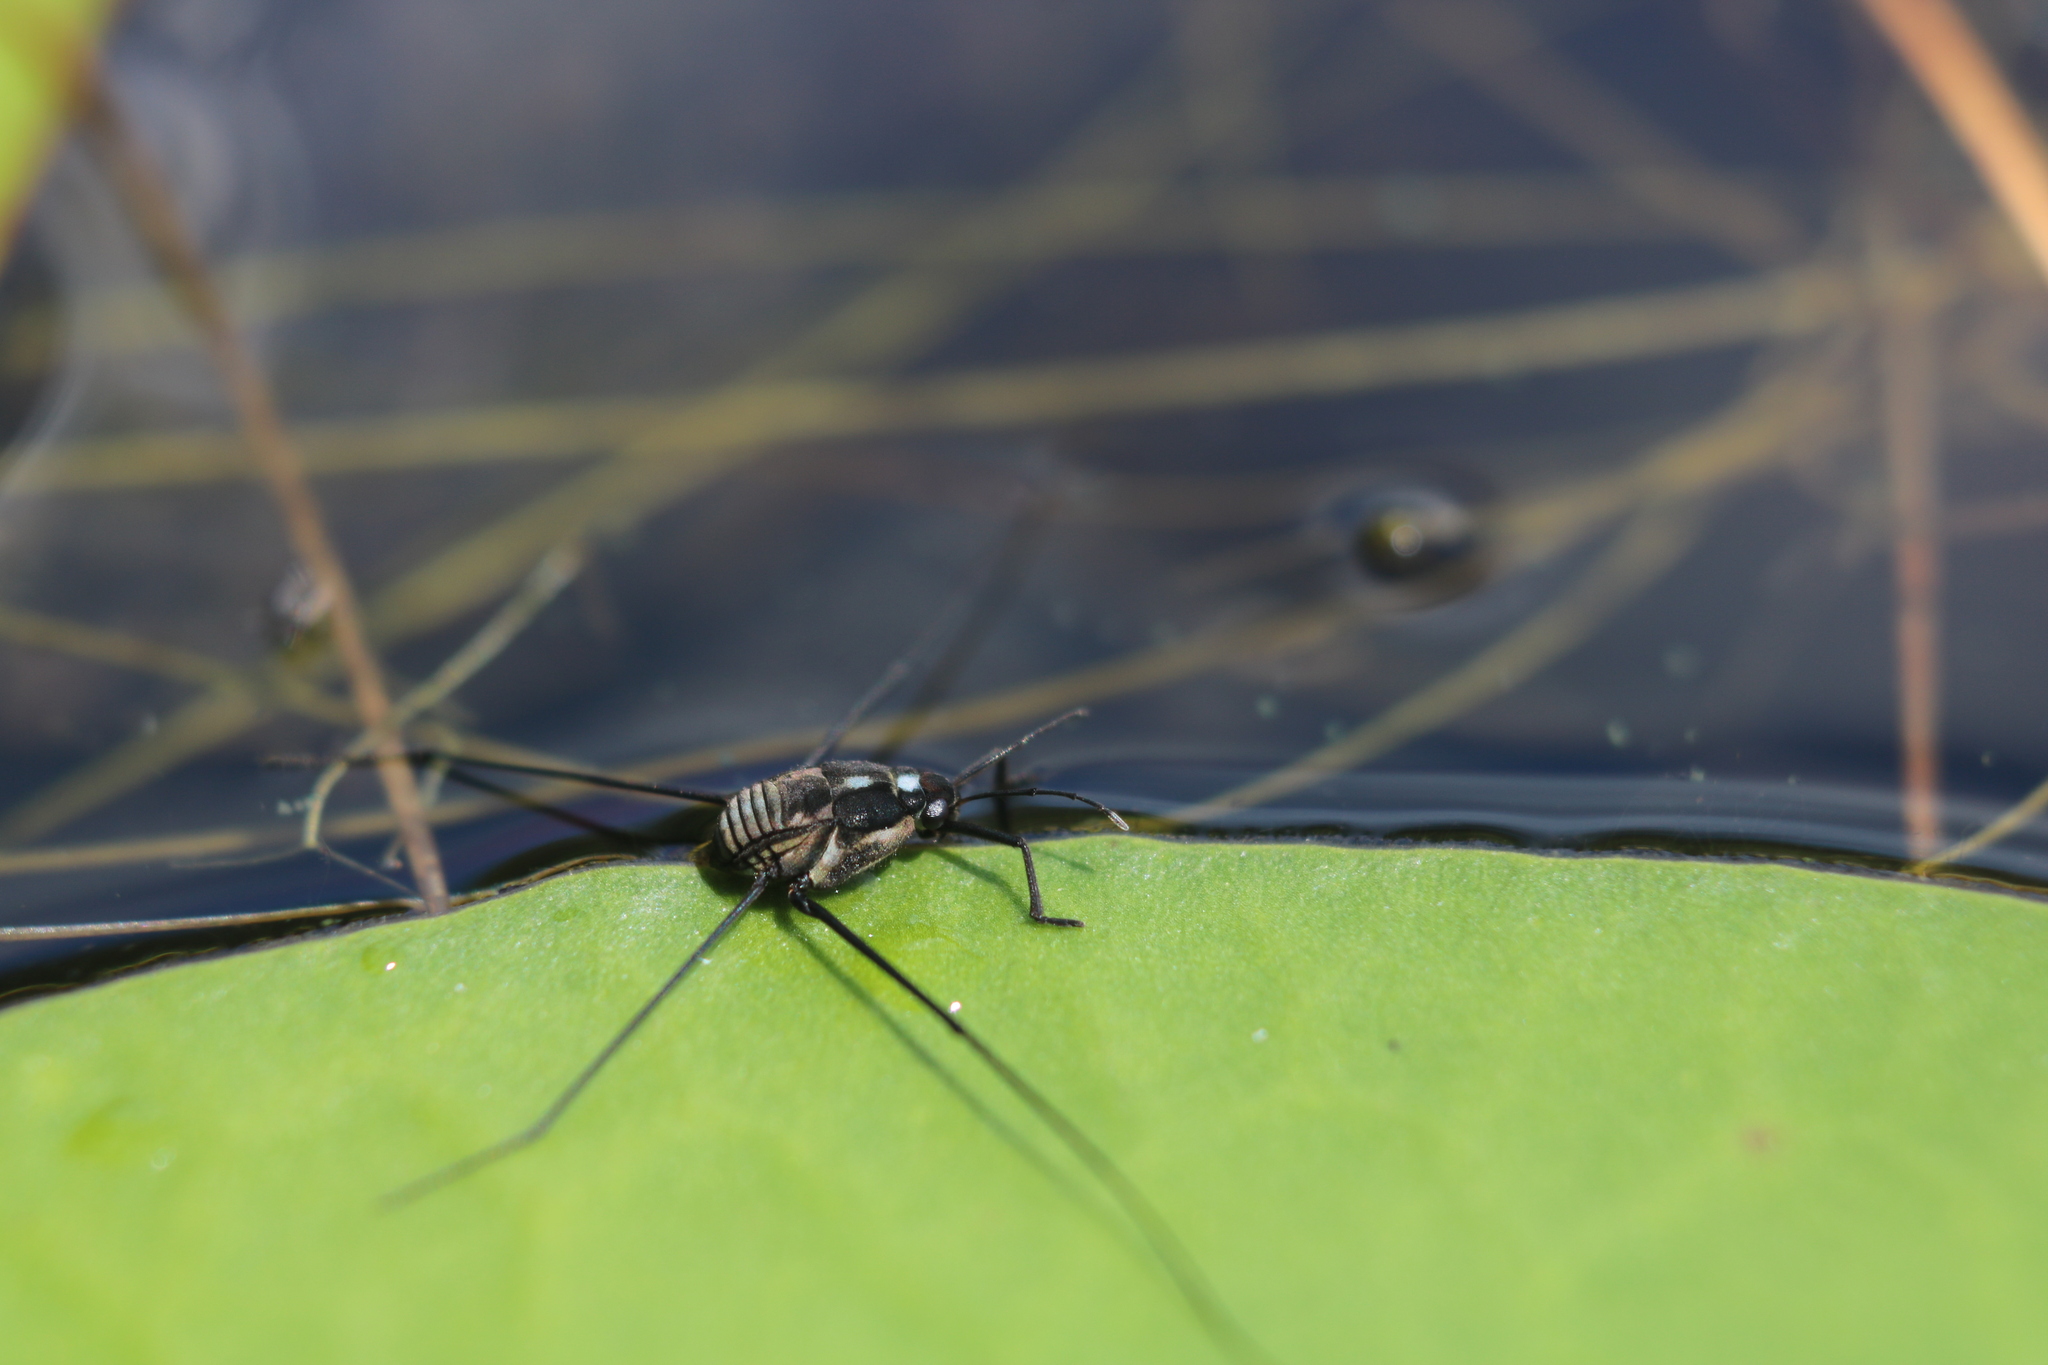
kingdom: Animalia
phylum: Arthropoda
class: Insecta
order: Hemiptera
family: Gerridae
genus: Metrobates
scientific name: Metrobates hesperius
